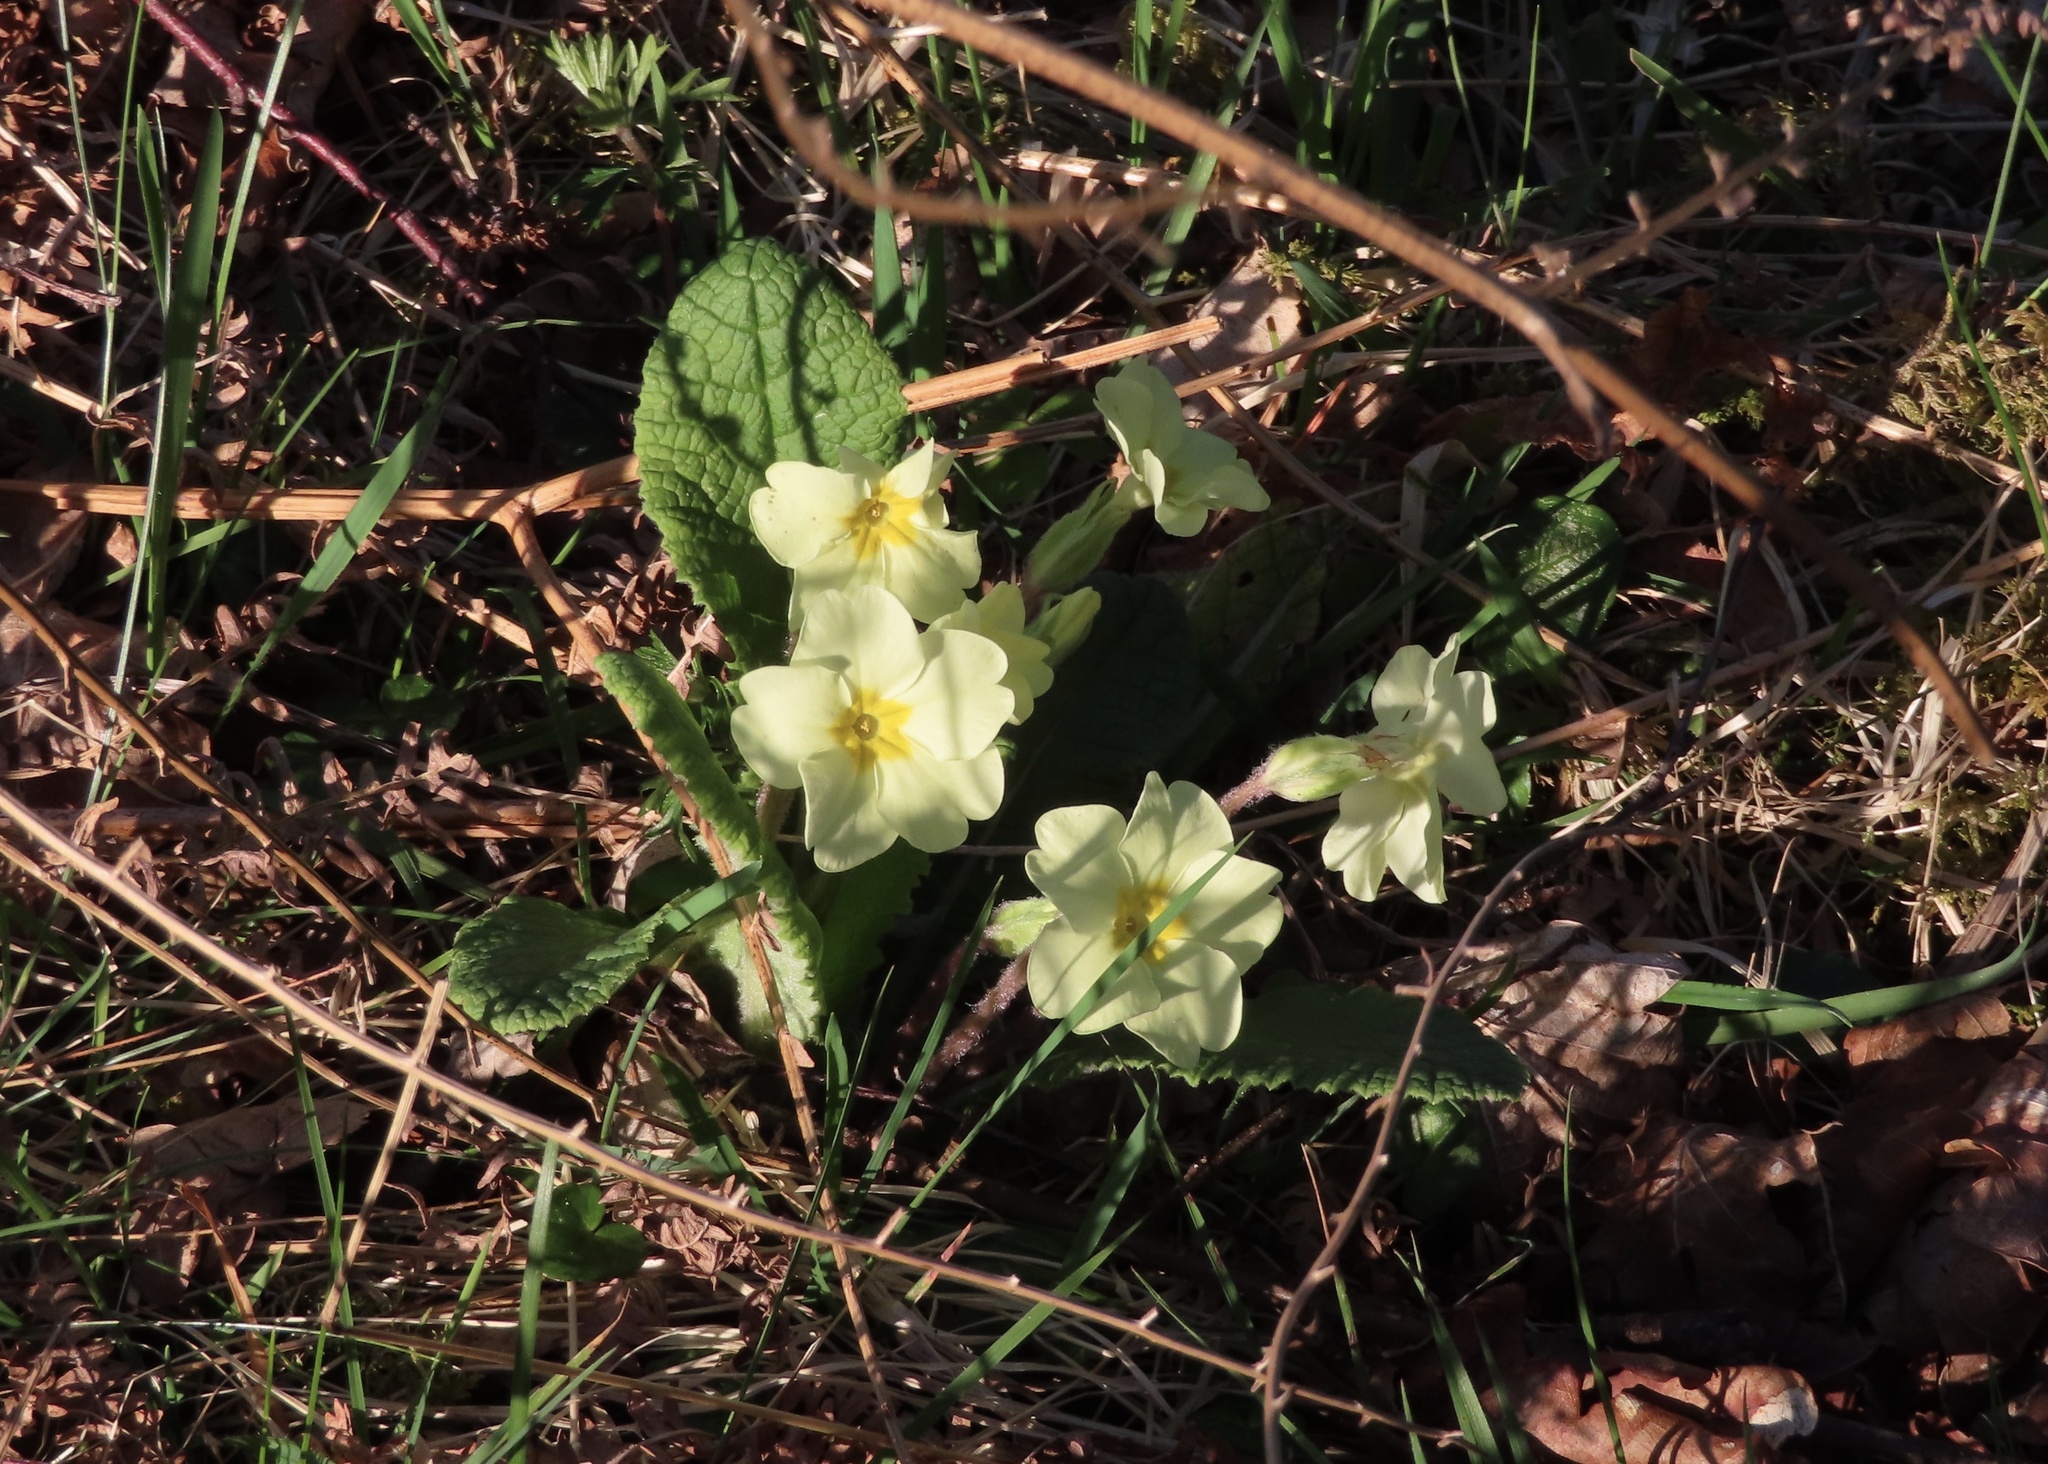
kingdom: Plantae
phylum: Tracheophyta
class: Magnoliopsida
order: Ericales
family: Primulaceae
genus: Primula
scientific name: Primula vulgaris
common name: Primrose
